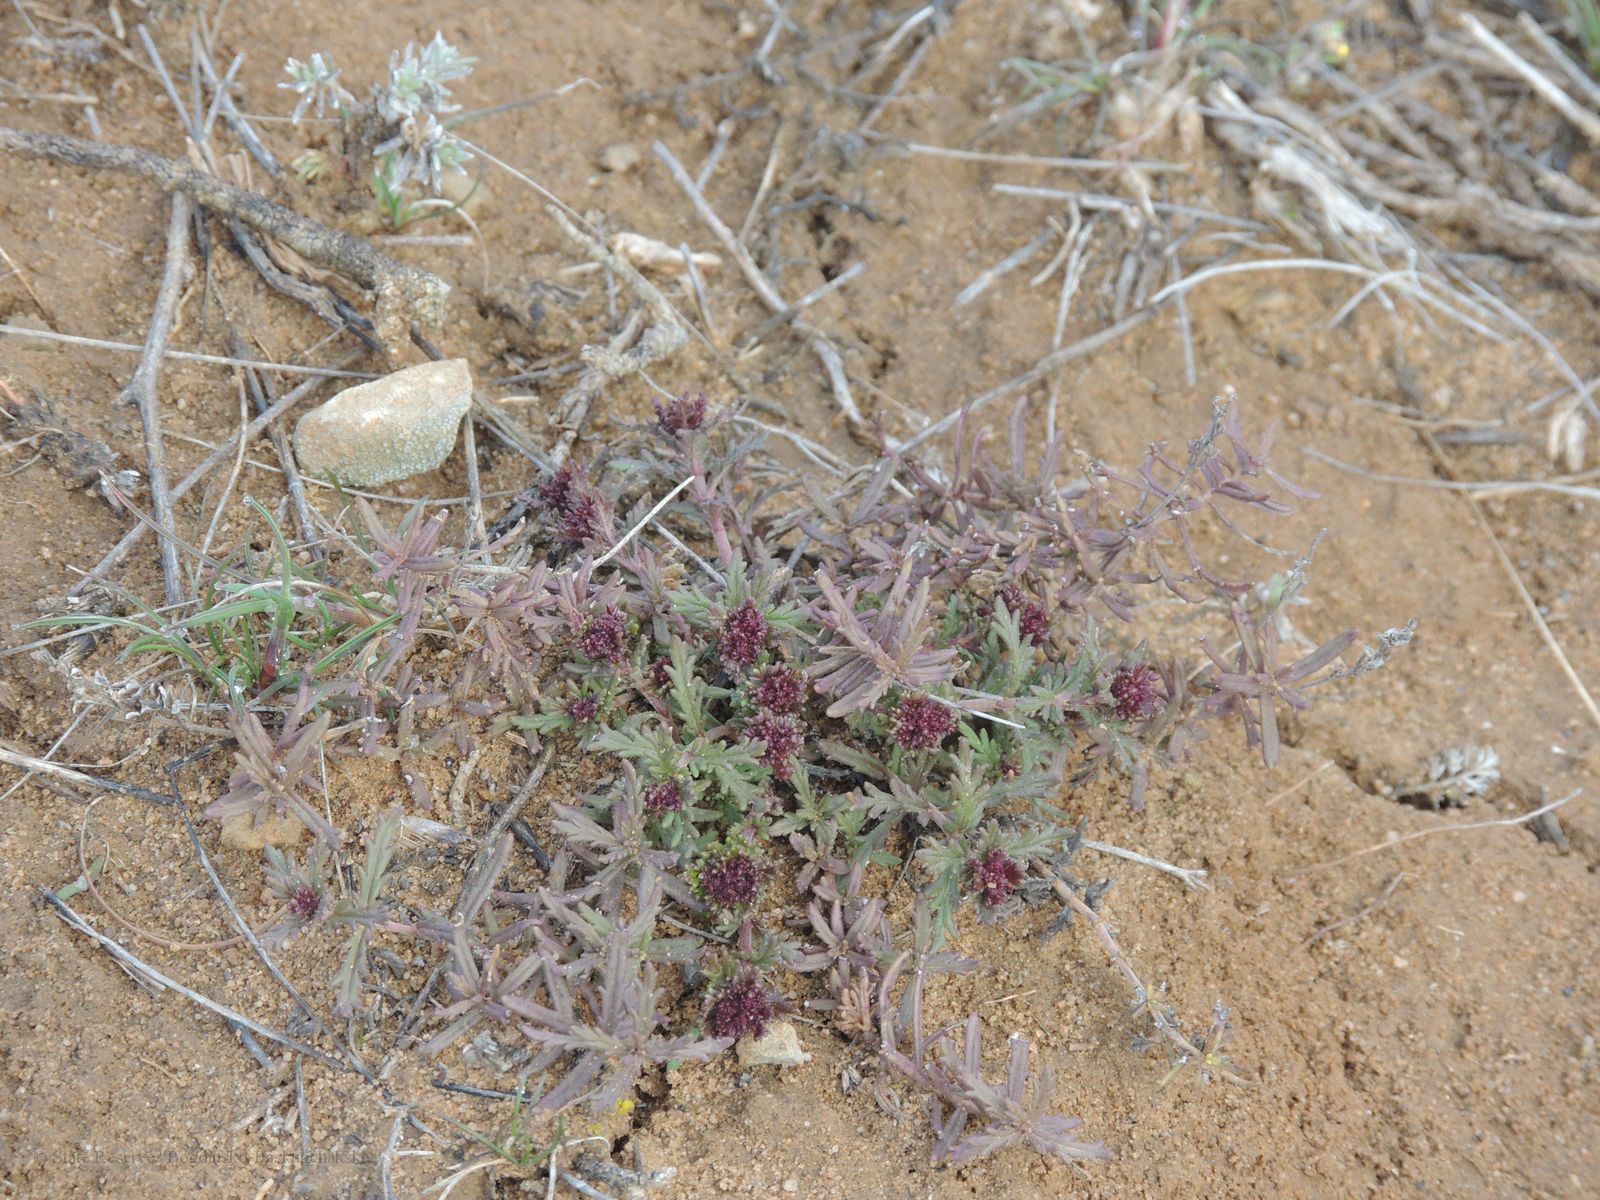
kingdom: Plantae
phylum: Tracheophyta
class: Magnoliopsida
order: Lamiales
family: Plantaginaceae
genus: Veronica
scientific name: Veronica multifida
